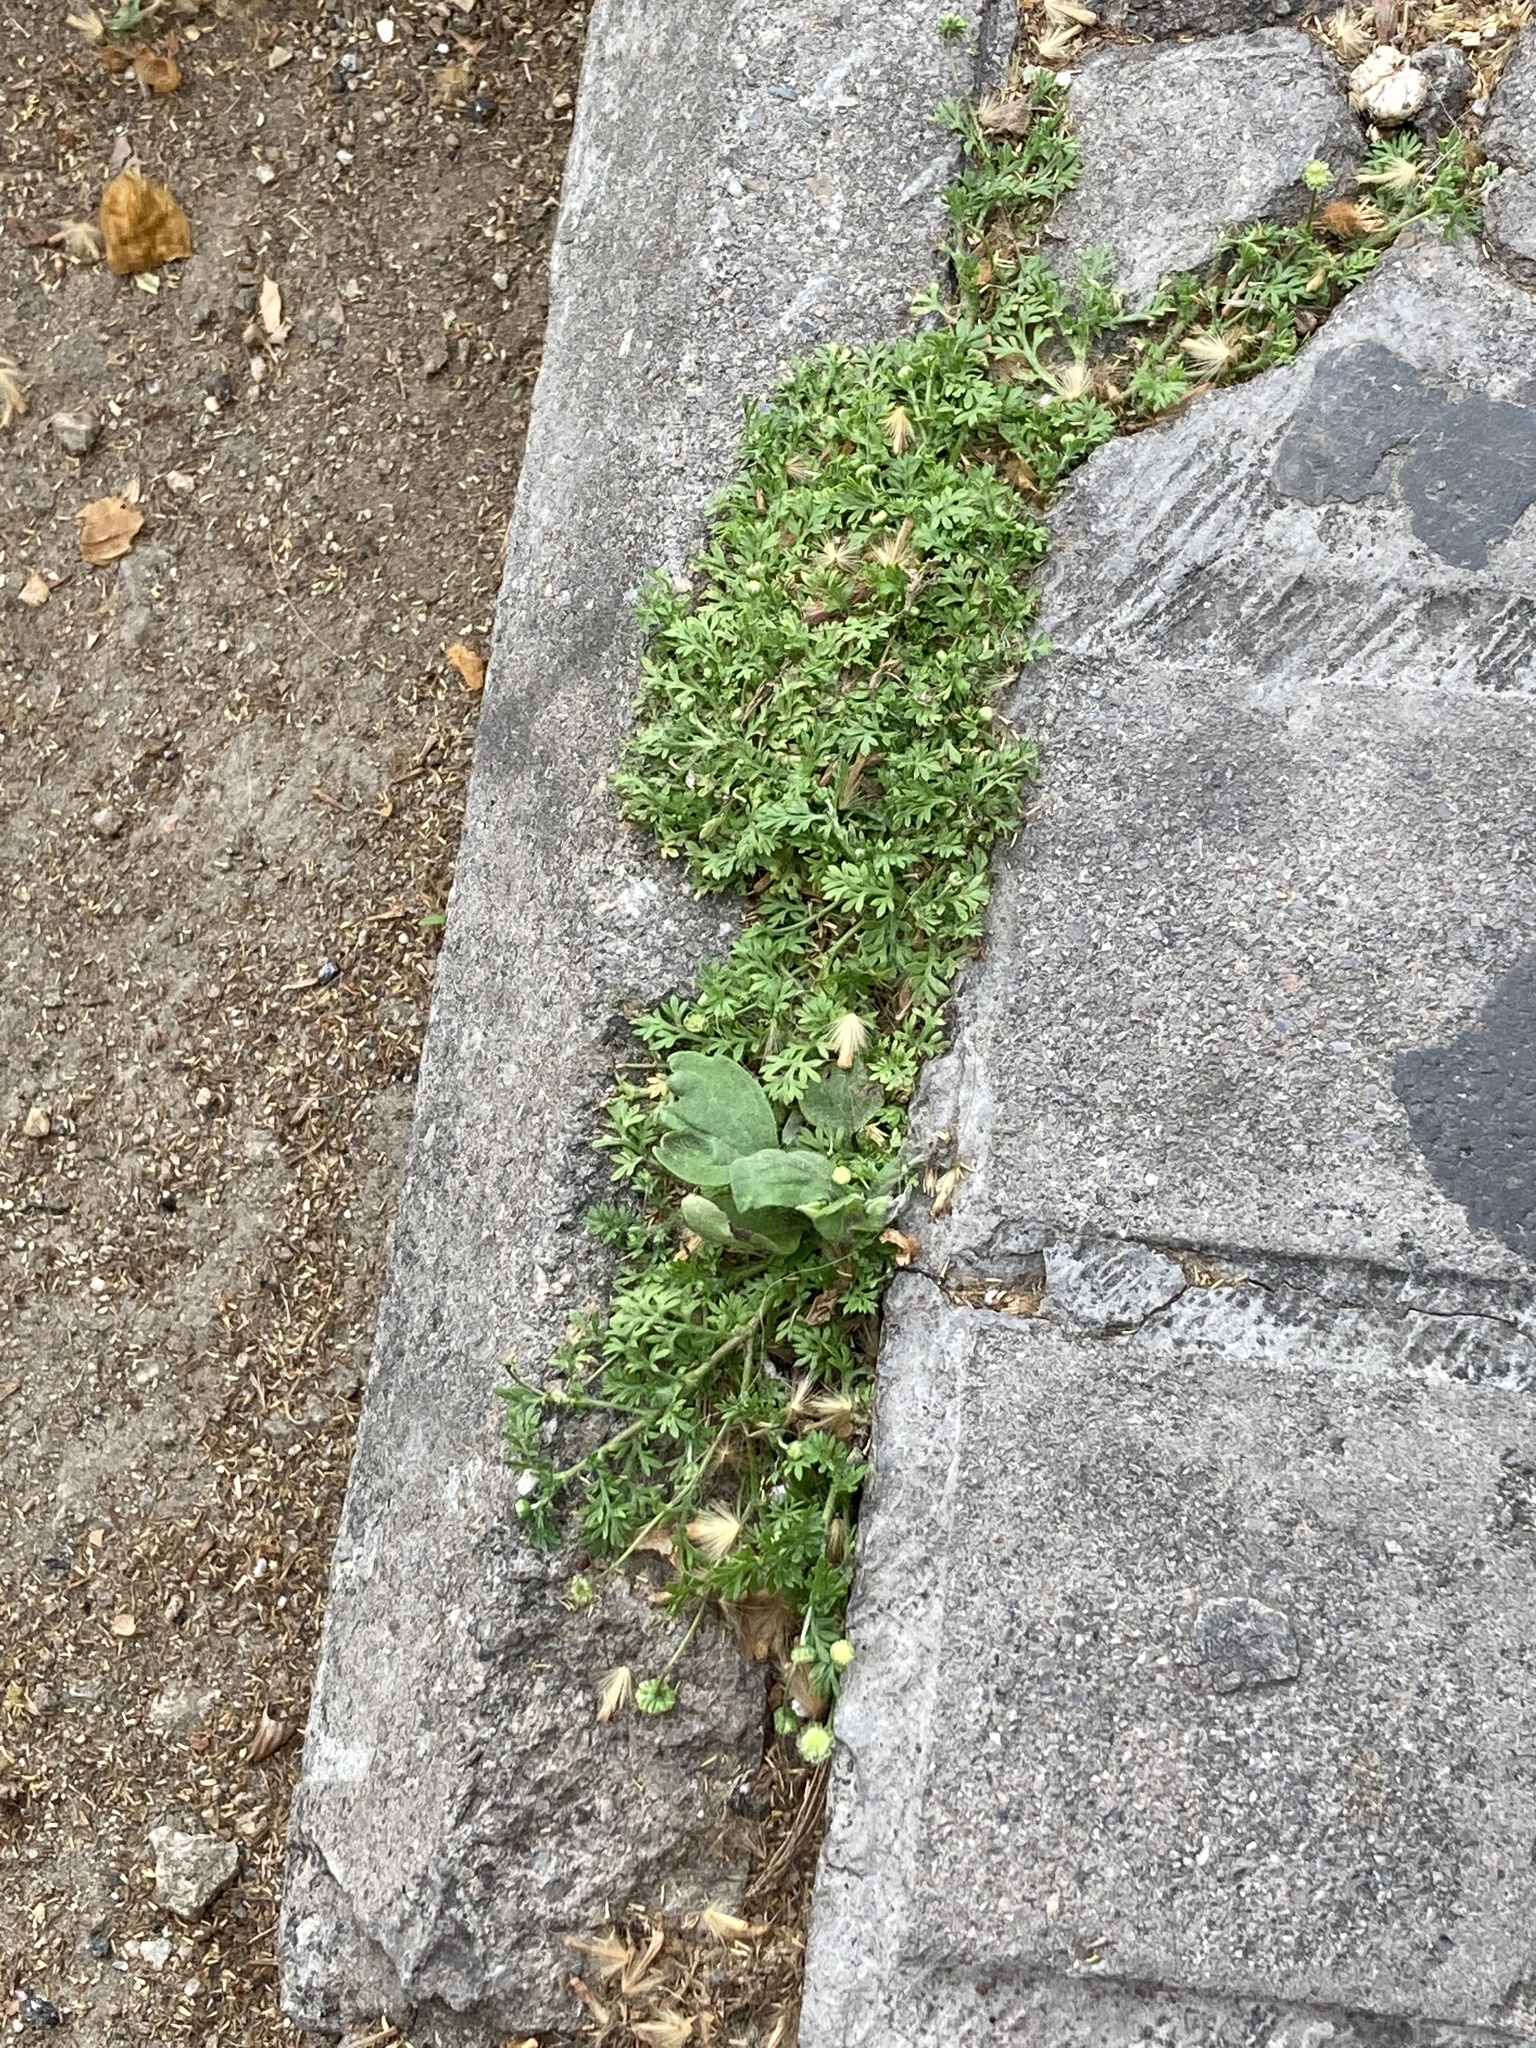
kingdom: Plantae
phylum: Tracheophyta
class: Magnoliopsida
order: Asterales
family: Asteraceae
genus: Cotula
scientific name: Cotula australis
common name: Australian waterbuttons
